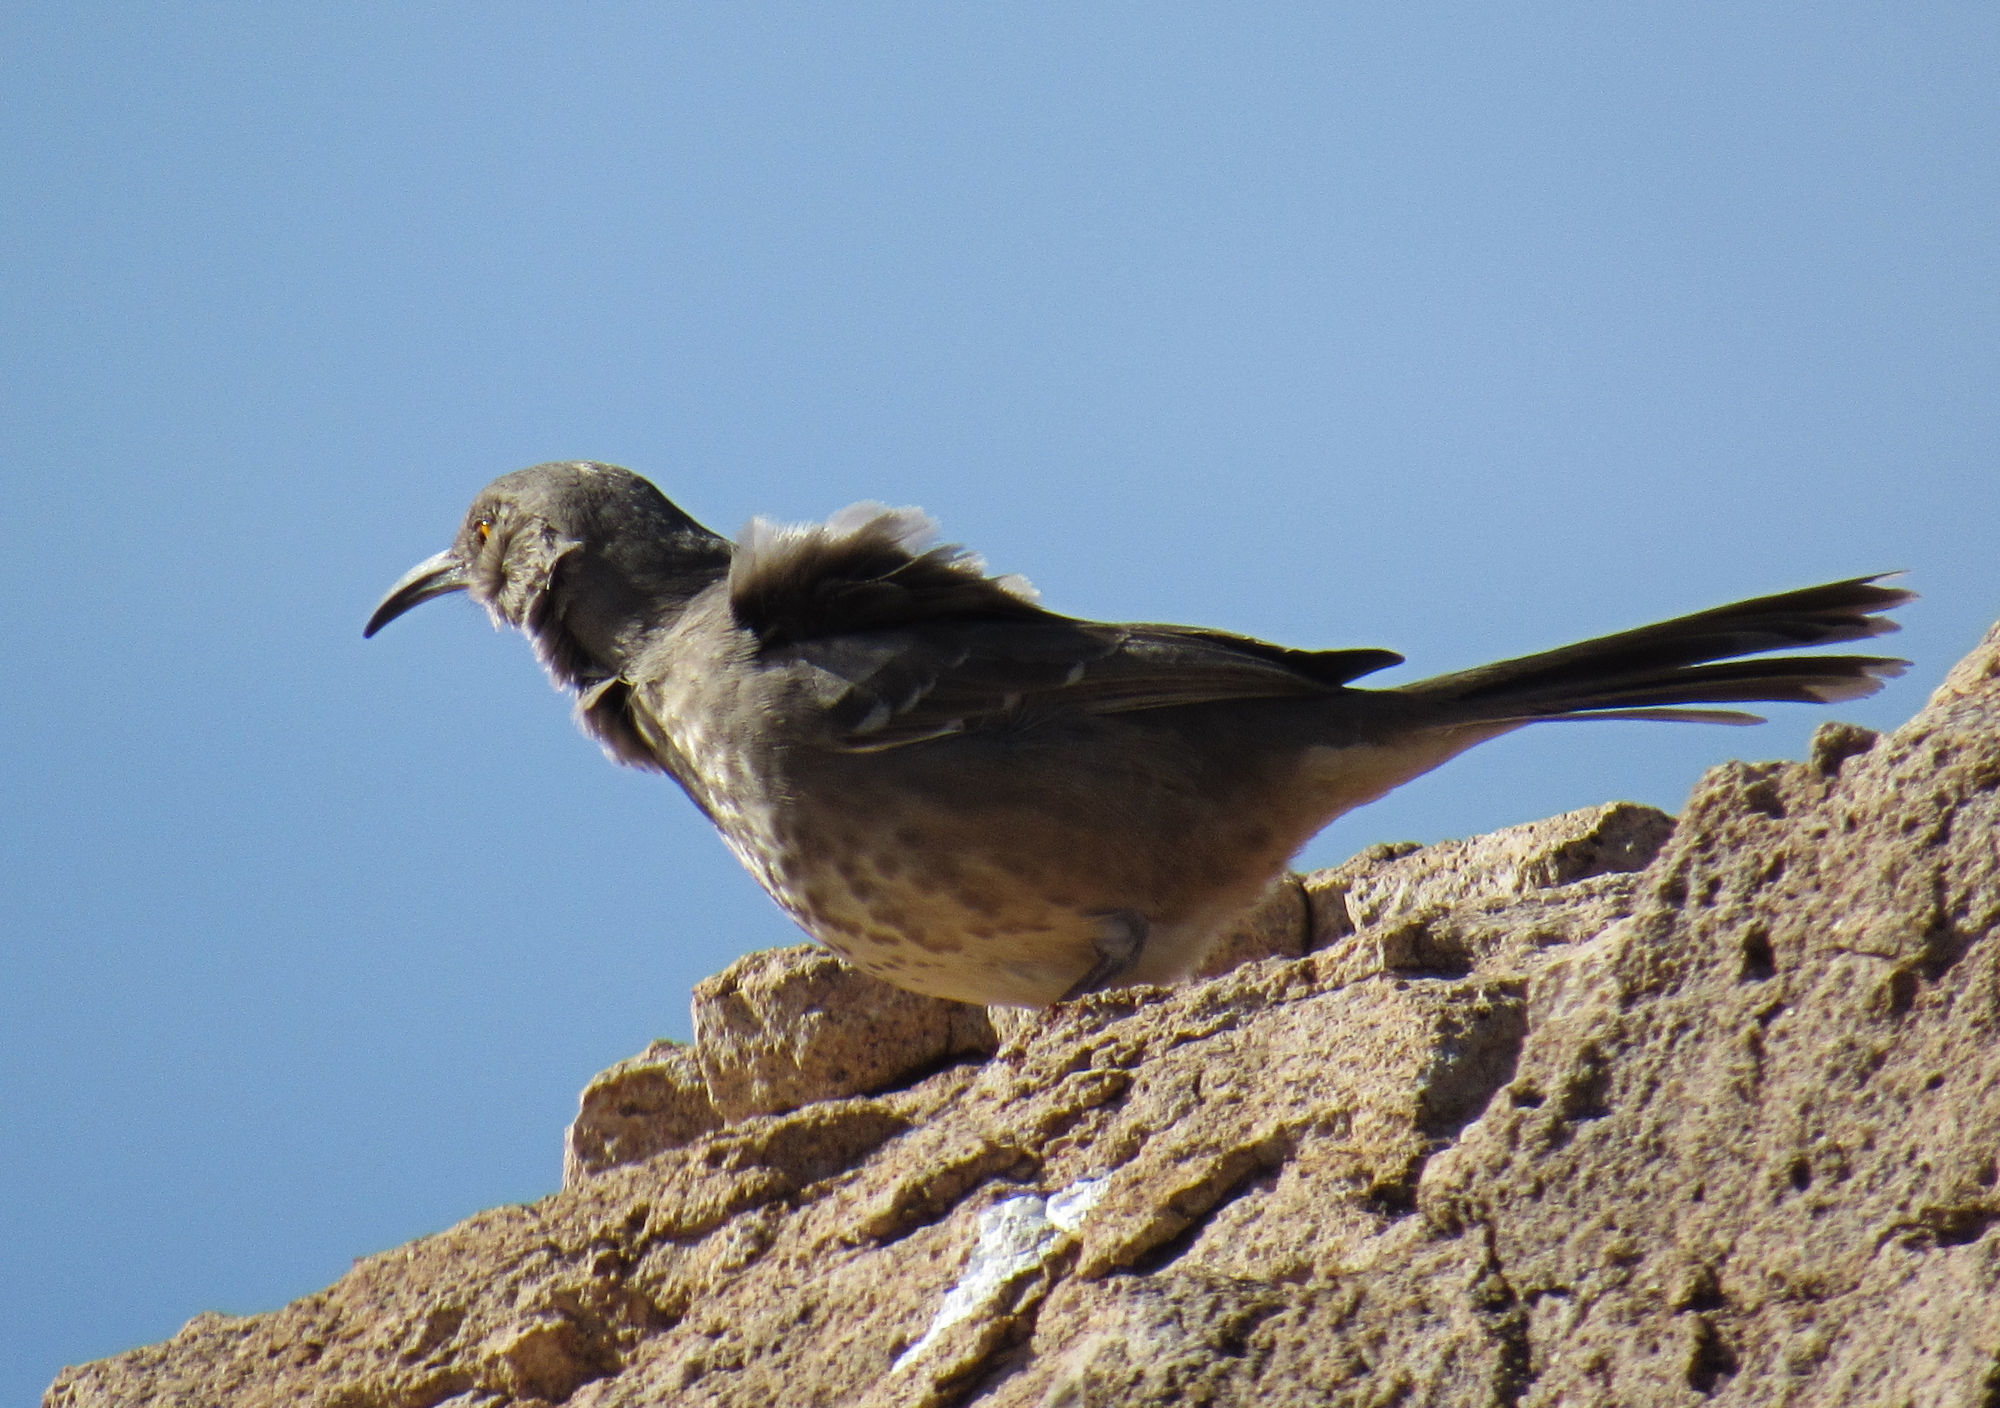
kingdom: Animalia
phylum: Chordata
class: Aves
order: Passeriformes
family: Mimidae
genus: Toxostoma
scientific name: Toxostoma curvirostre
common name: Curve-billed thrasher
